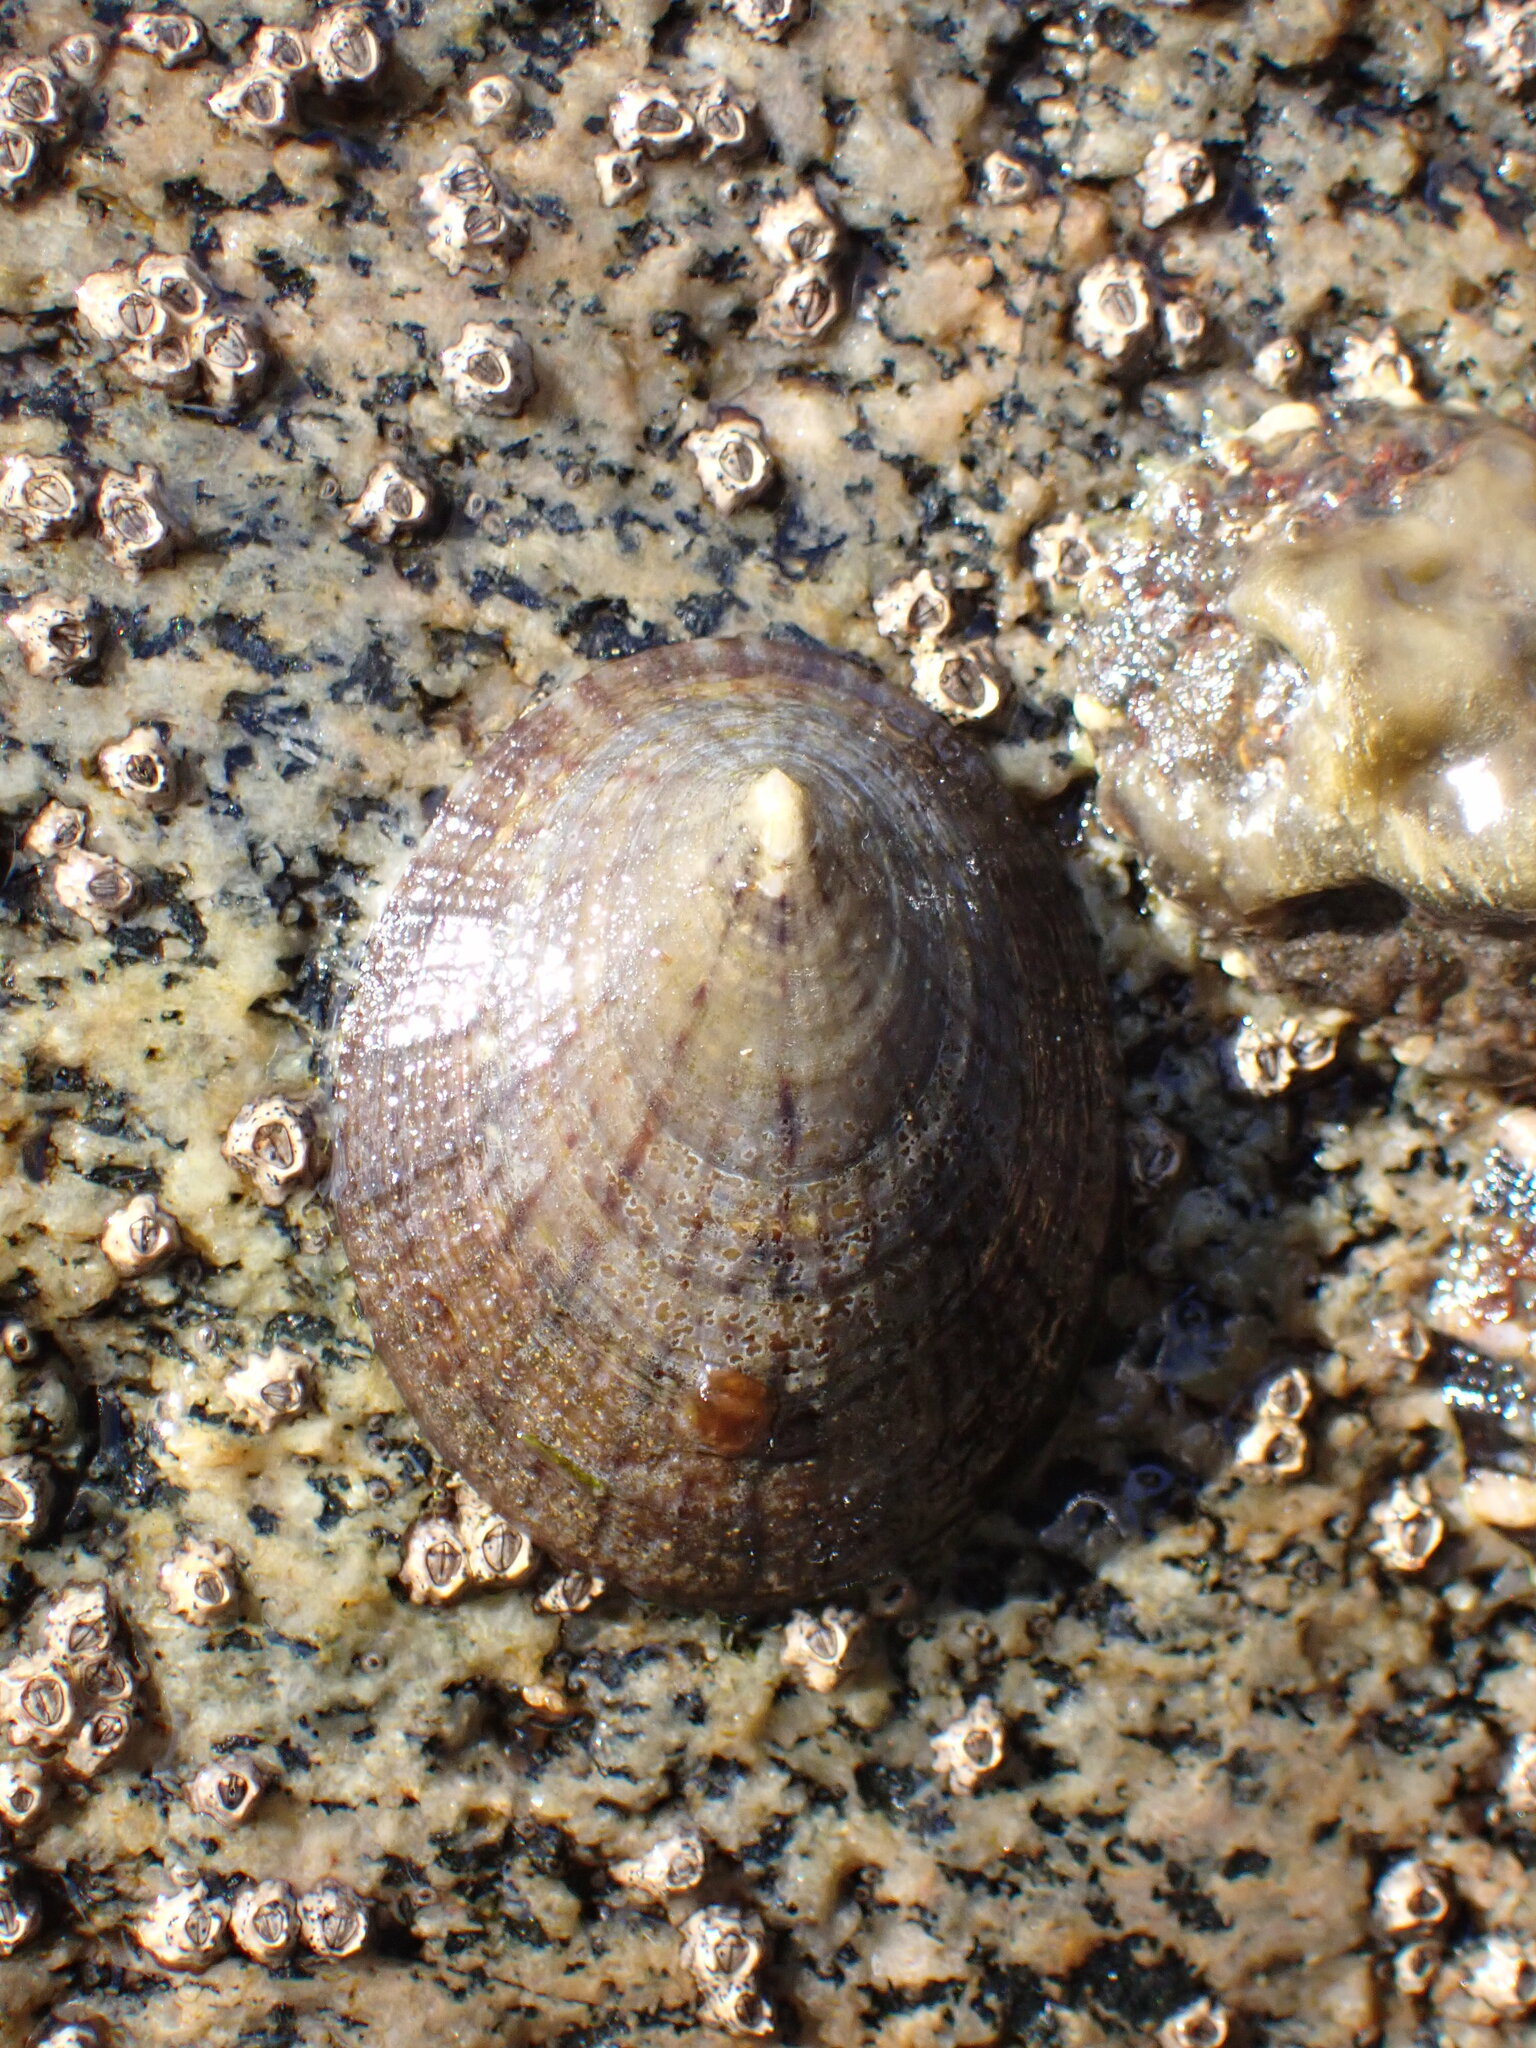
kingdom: Animalia
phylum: Mollusca
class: Gastropoda
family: Nacellidae
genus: Cellana
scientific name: Cellana radians
